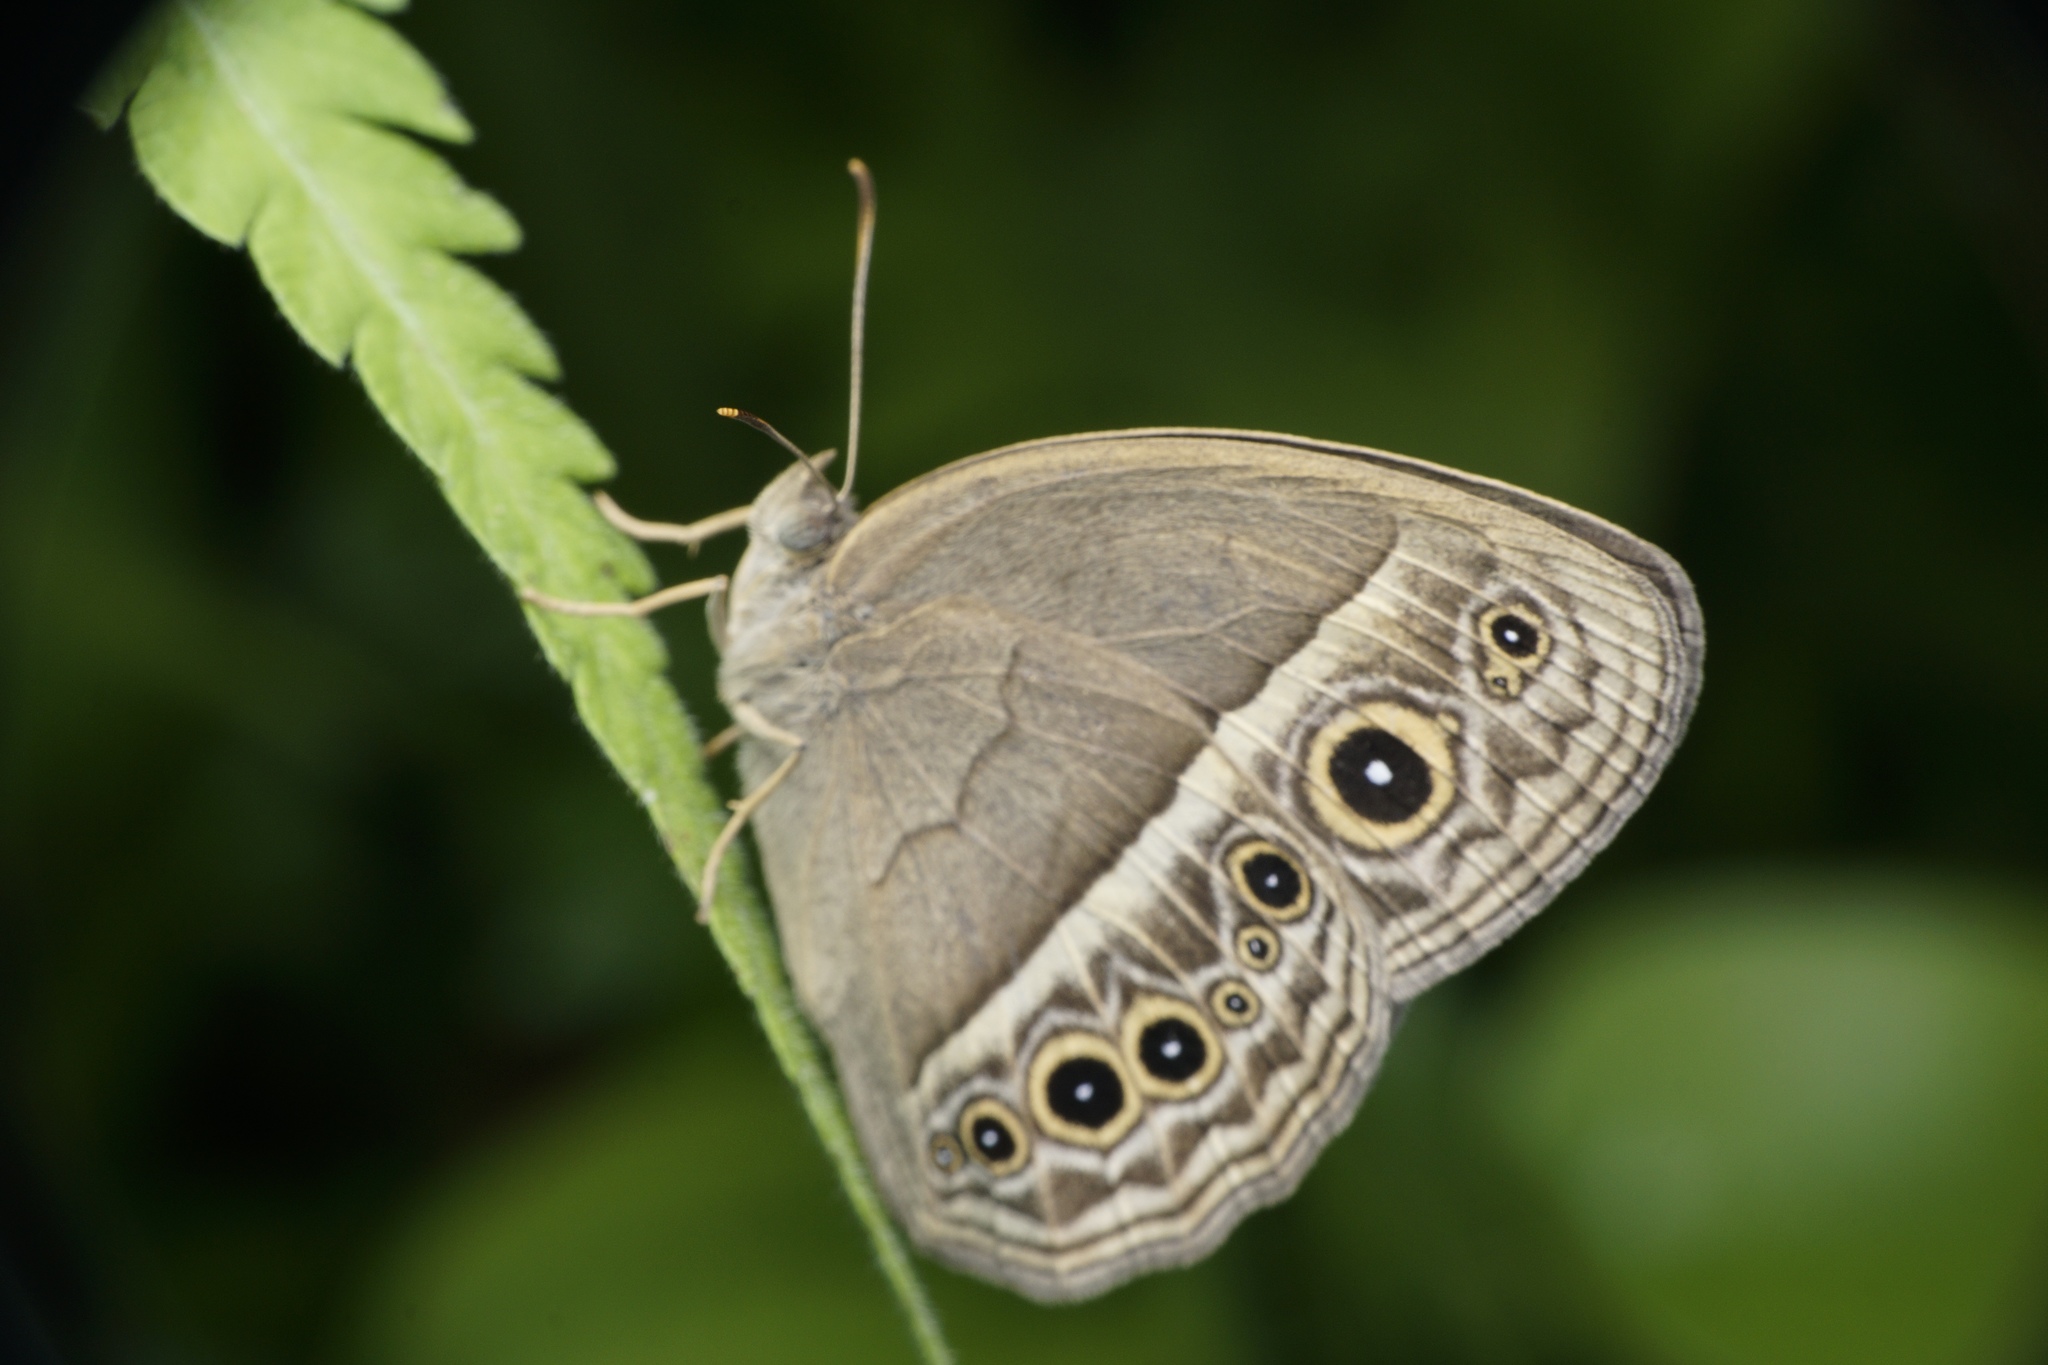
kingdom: Animalia
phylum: Arthropoda
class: Insecta
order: Lepidoptera
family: Nymphalidae
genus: Mycalesis
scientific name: Mycalesis mineus
